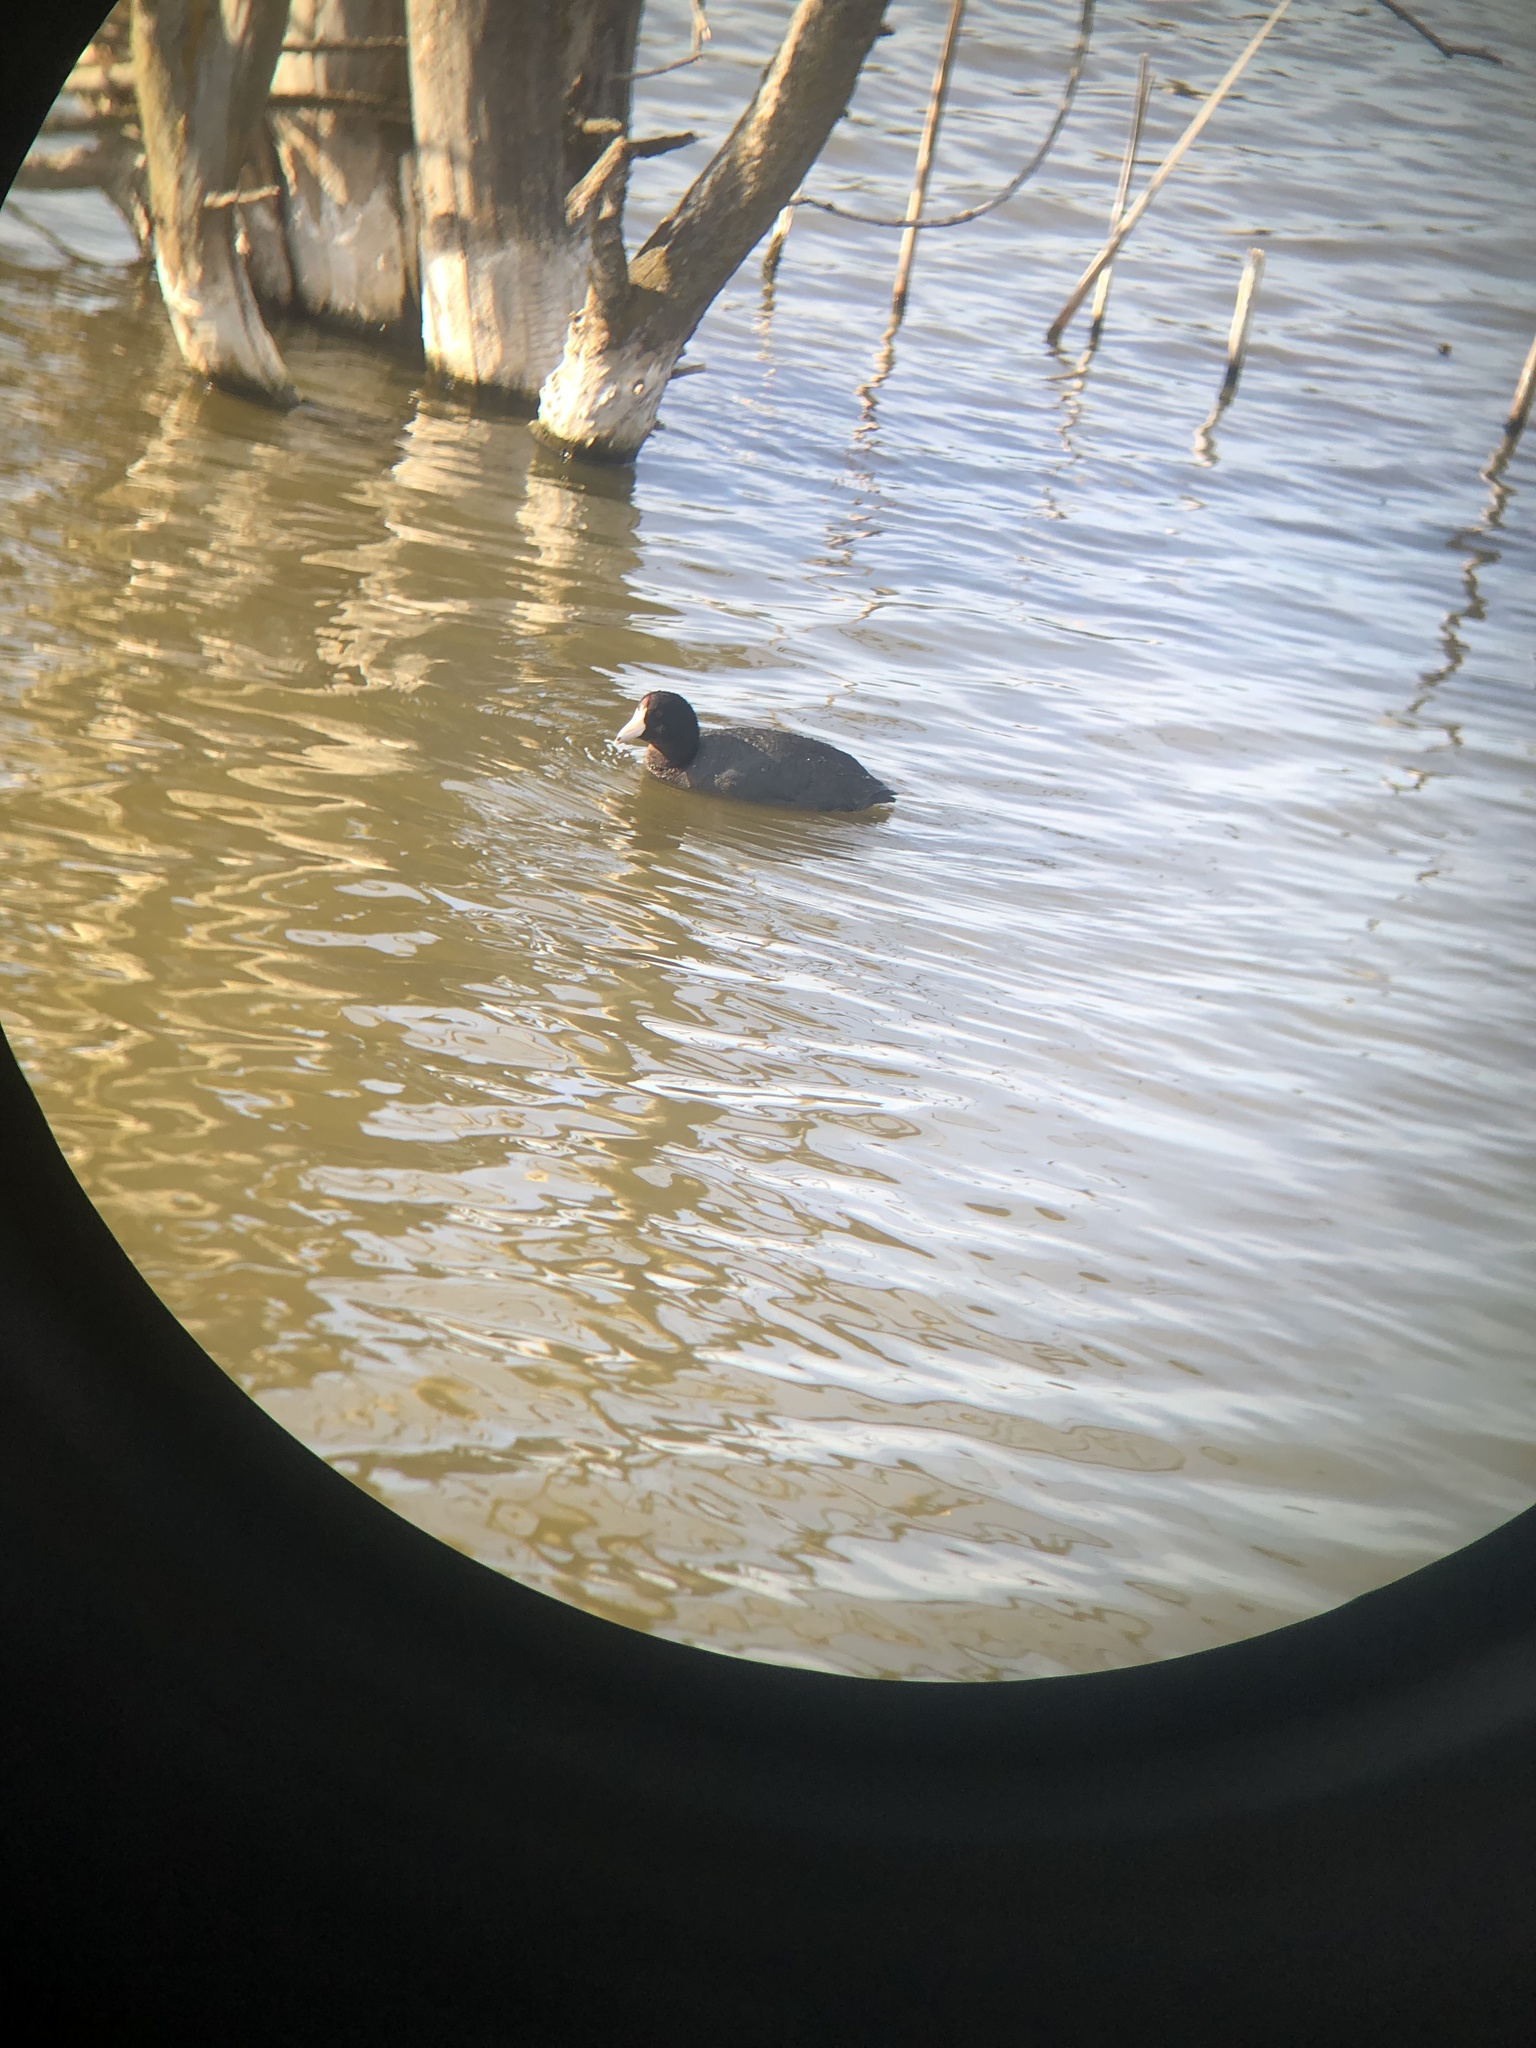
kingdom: Animalia
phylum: Chordata
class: Aves
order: Gruiformes
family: Rallidae
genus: Fulica
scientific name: Fulica americana
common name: American coot
